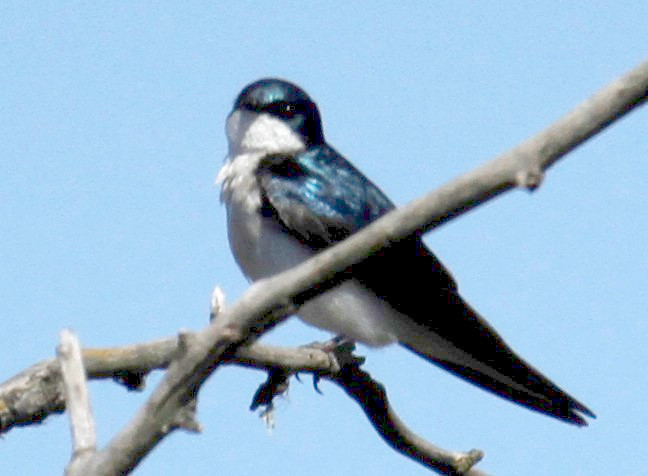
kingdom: Animalia
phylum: Chordata
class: Aves
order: Passeriformes
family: Hirundinidae
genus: Tachycineta
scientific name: Tachycineta bicolor
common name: Tree swallow
